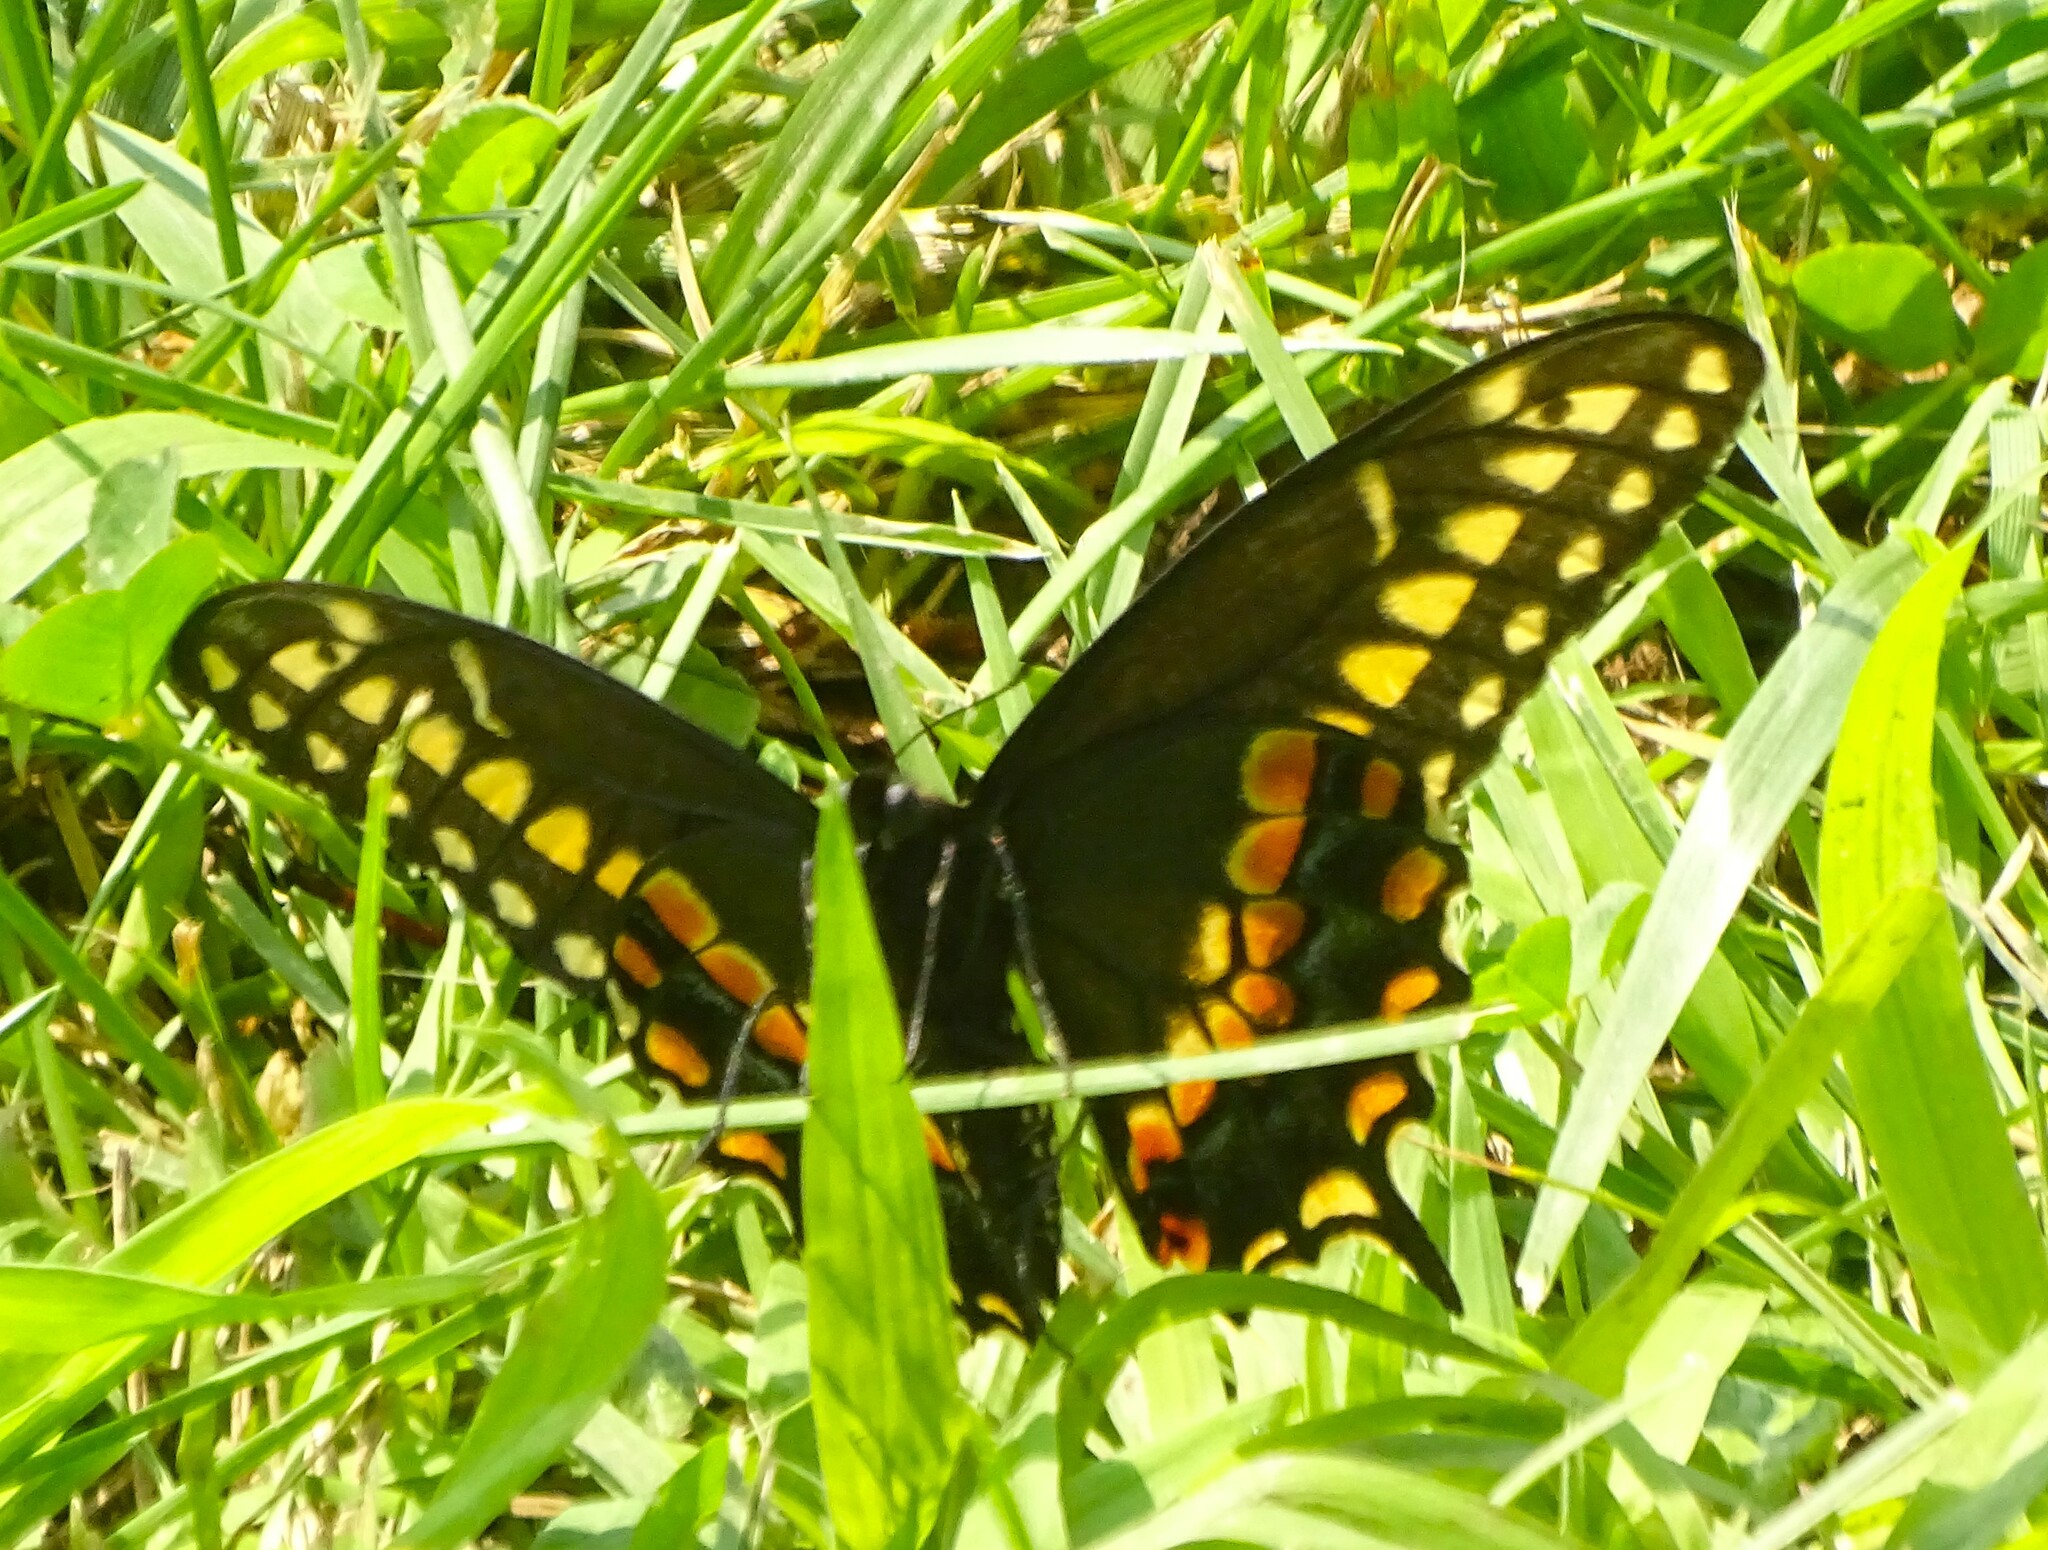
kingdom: Animalia
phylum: Arthropoda
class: Insecta
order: Lepidoptera
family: Papilionidae
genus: Papilio
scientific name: Papilio polyxenes
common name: Black swallowtail
